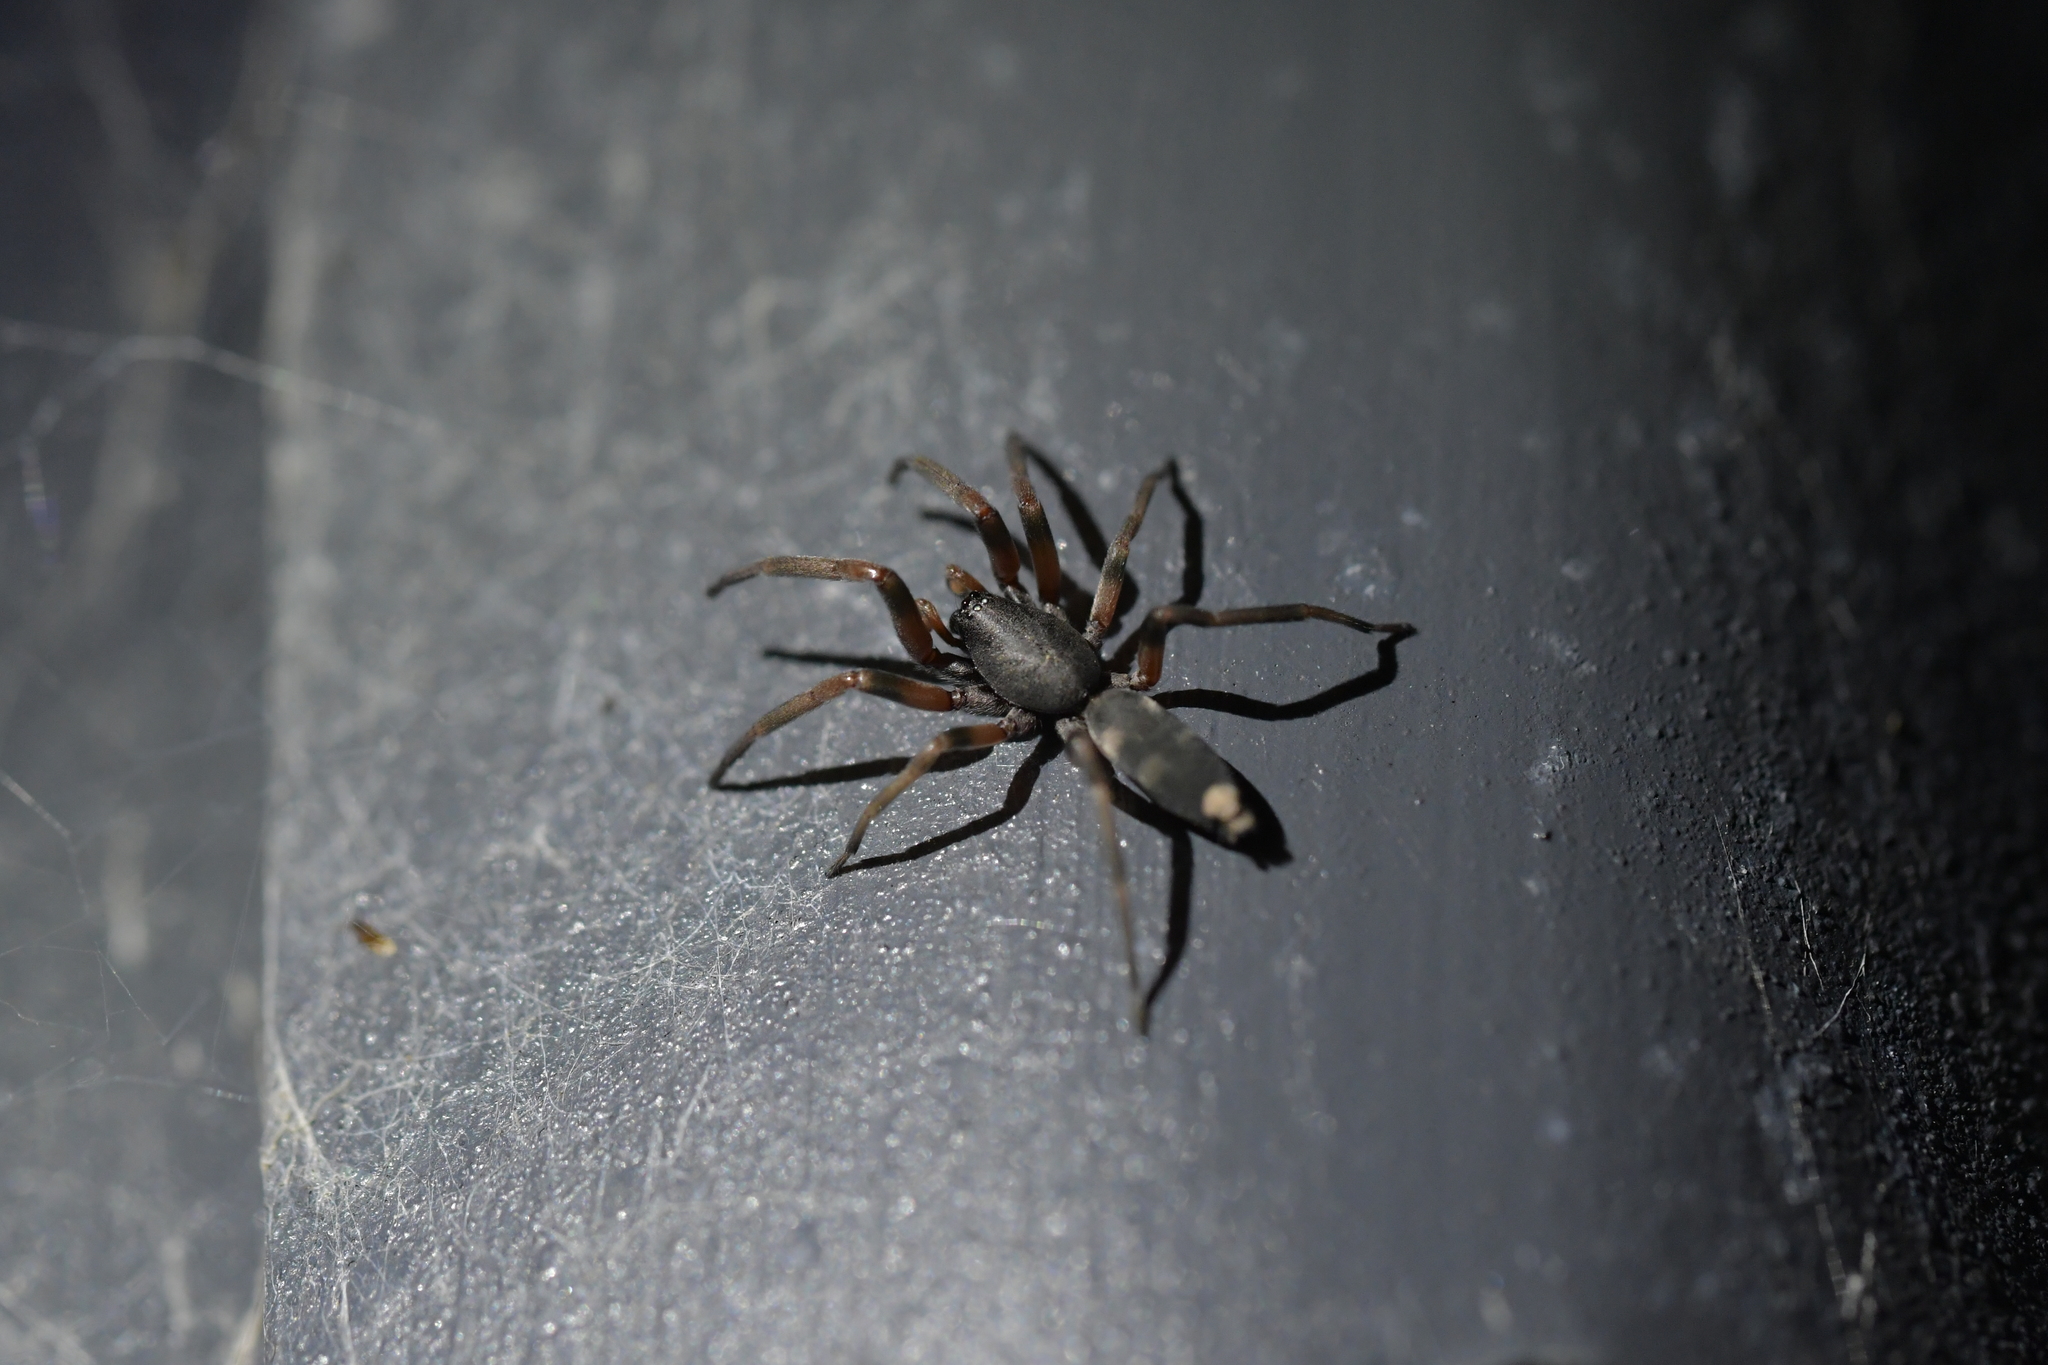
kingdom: Animalia
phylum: Arthropoda
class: Arachnida
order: Araneae
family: Lamponidae
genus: Lampona
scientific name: Lampona murina
